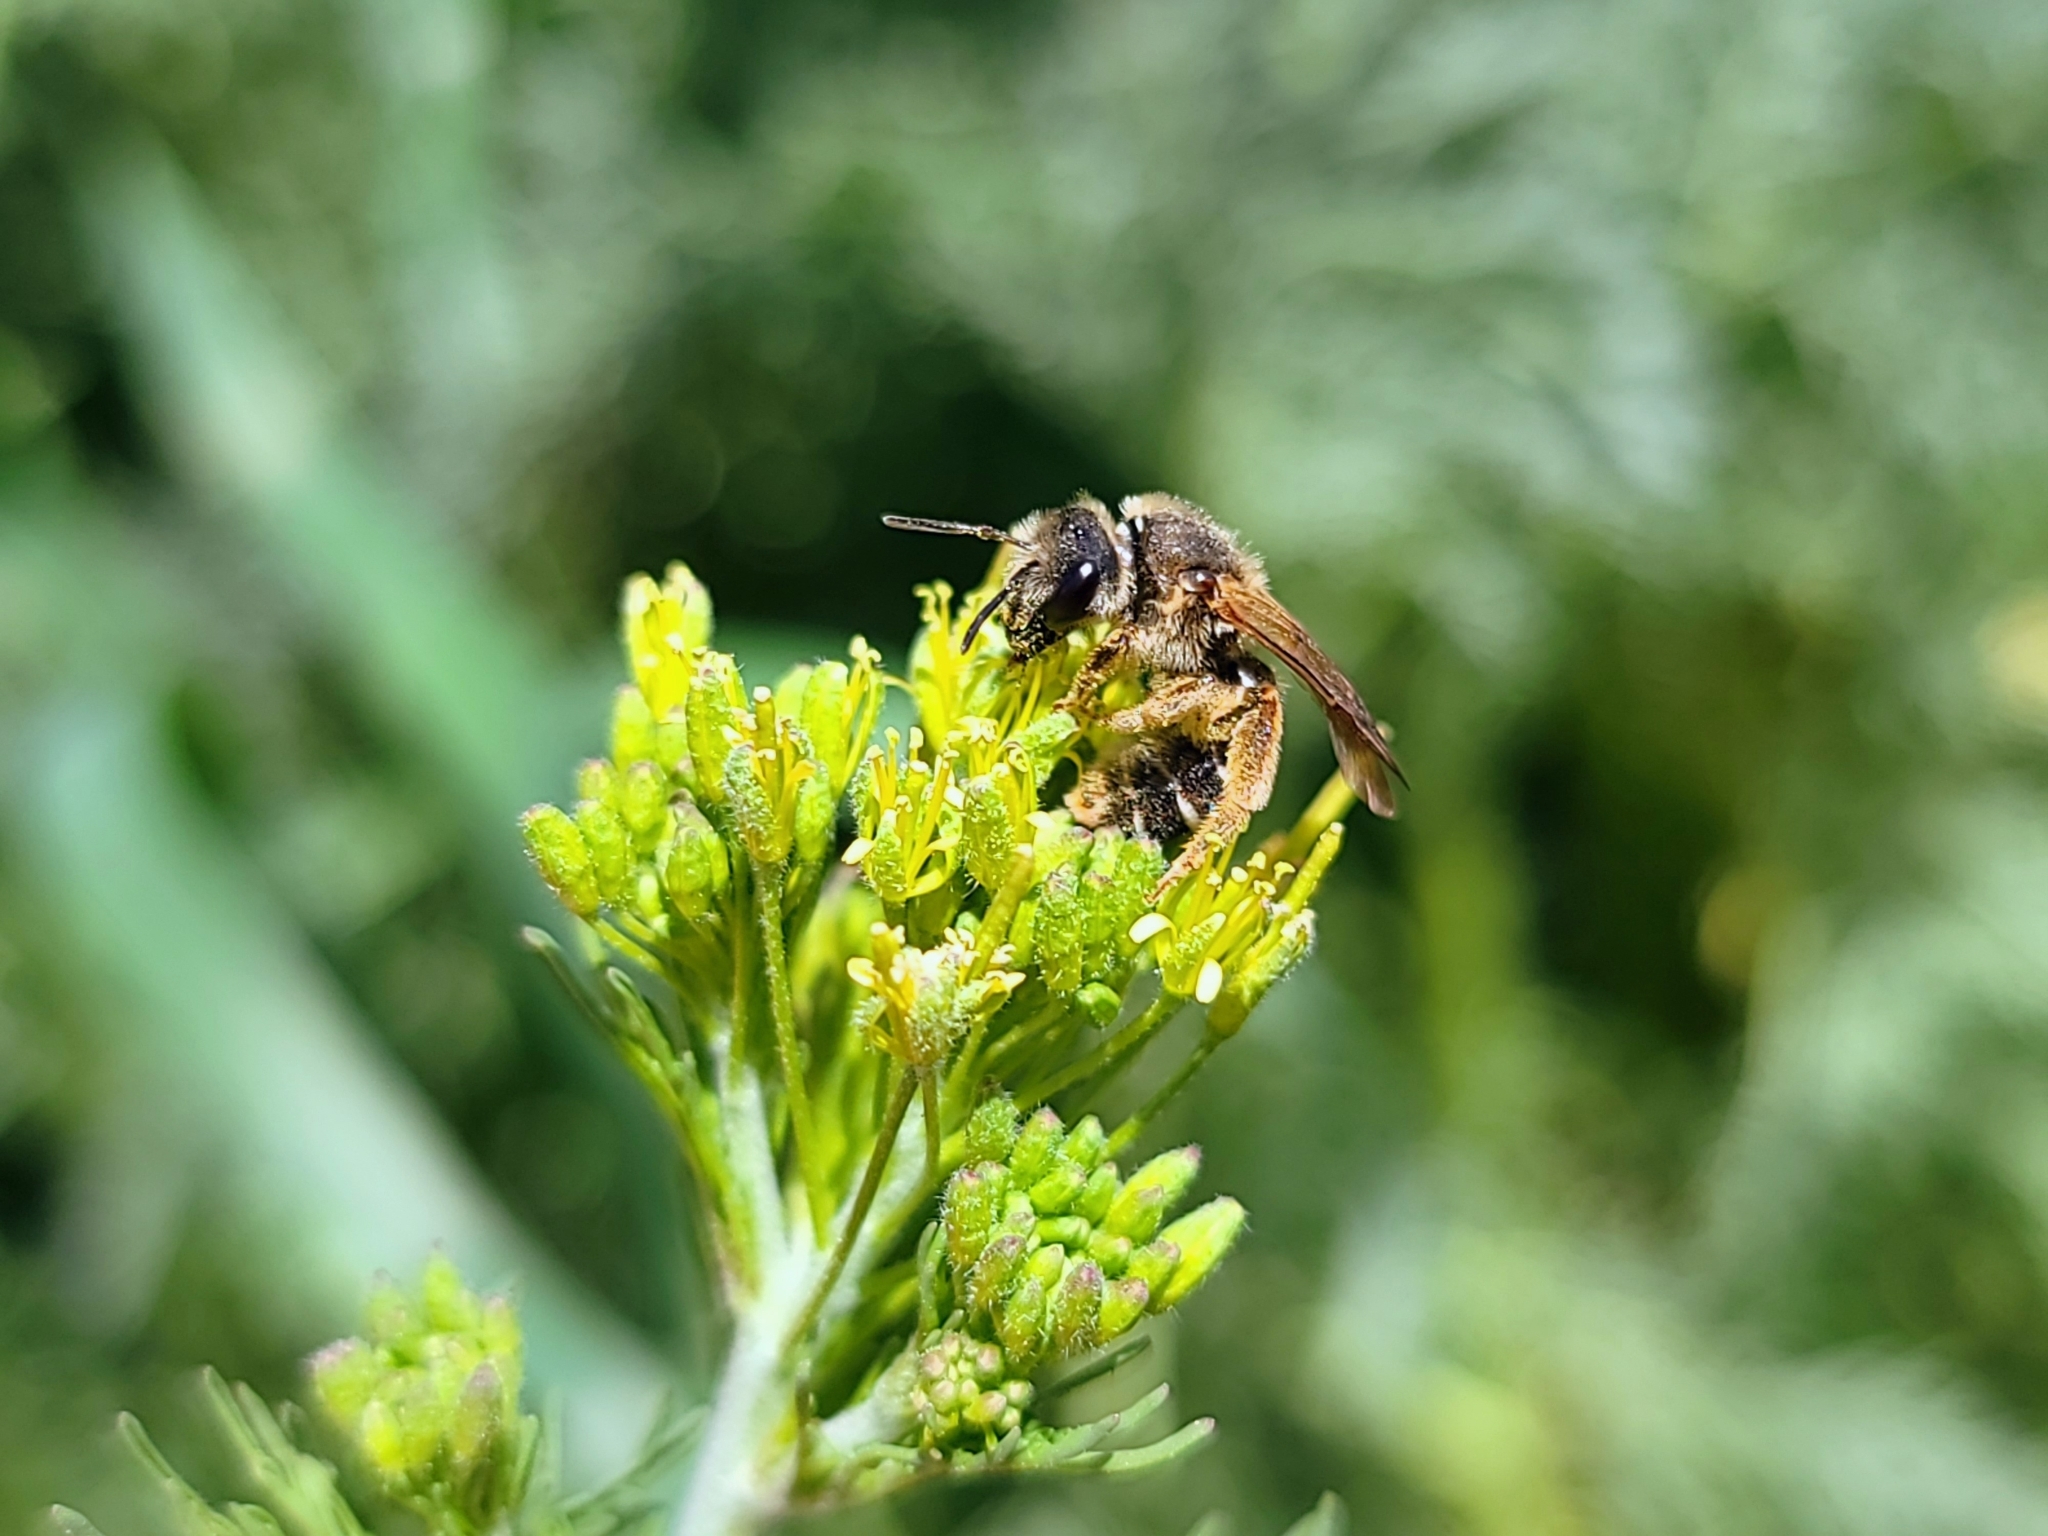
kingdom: Animalia
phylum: Arthropoda
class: Insecta
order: Hymenoptera
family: Halictidae
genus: Halictus
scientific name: Halictus rubicundus
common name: Orange-legged furrow bee
